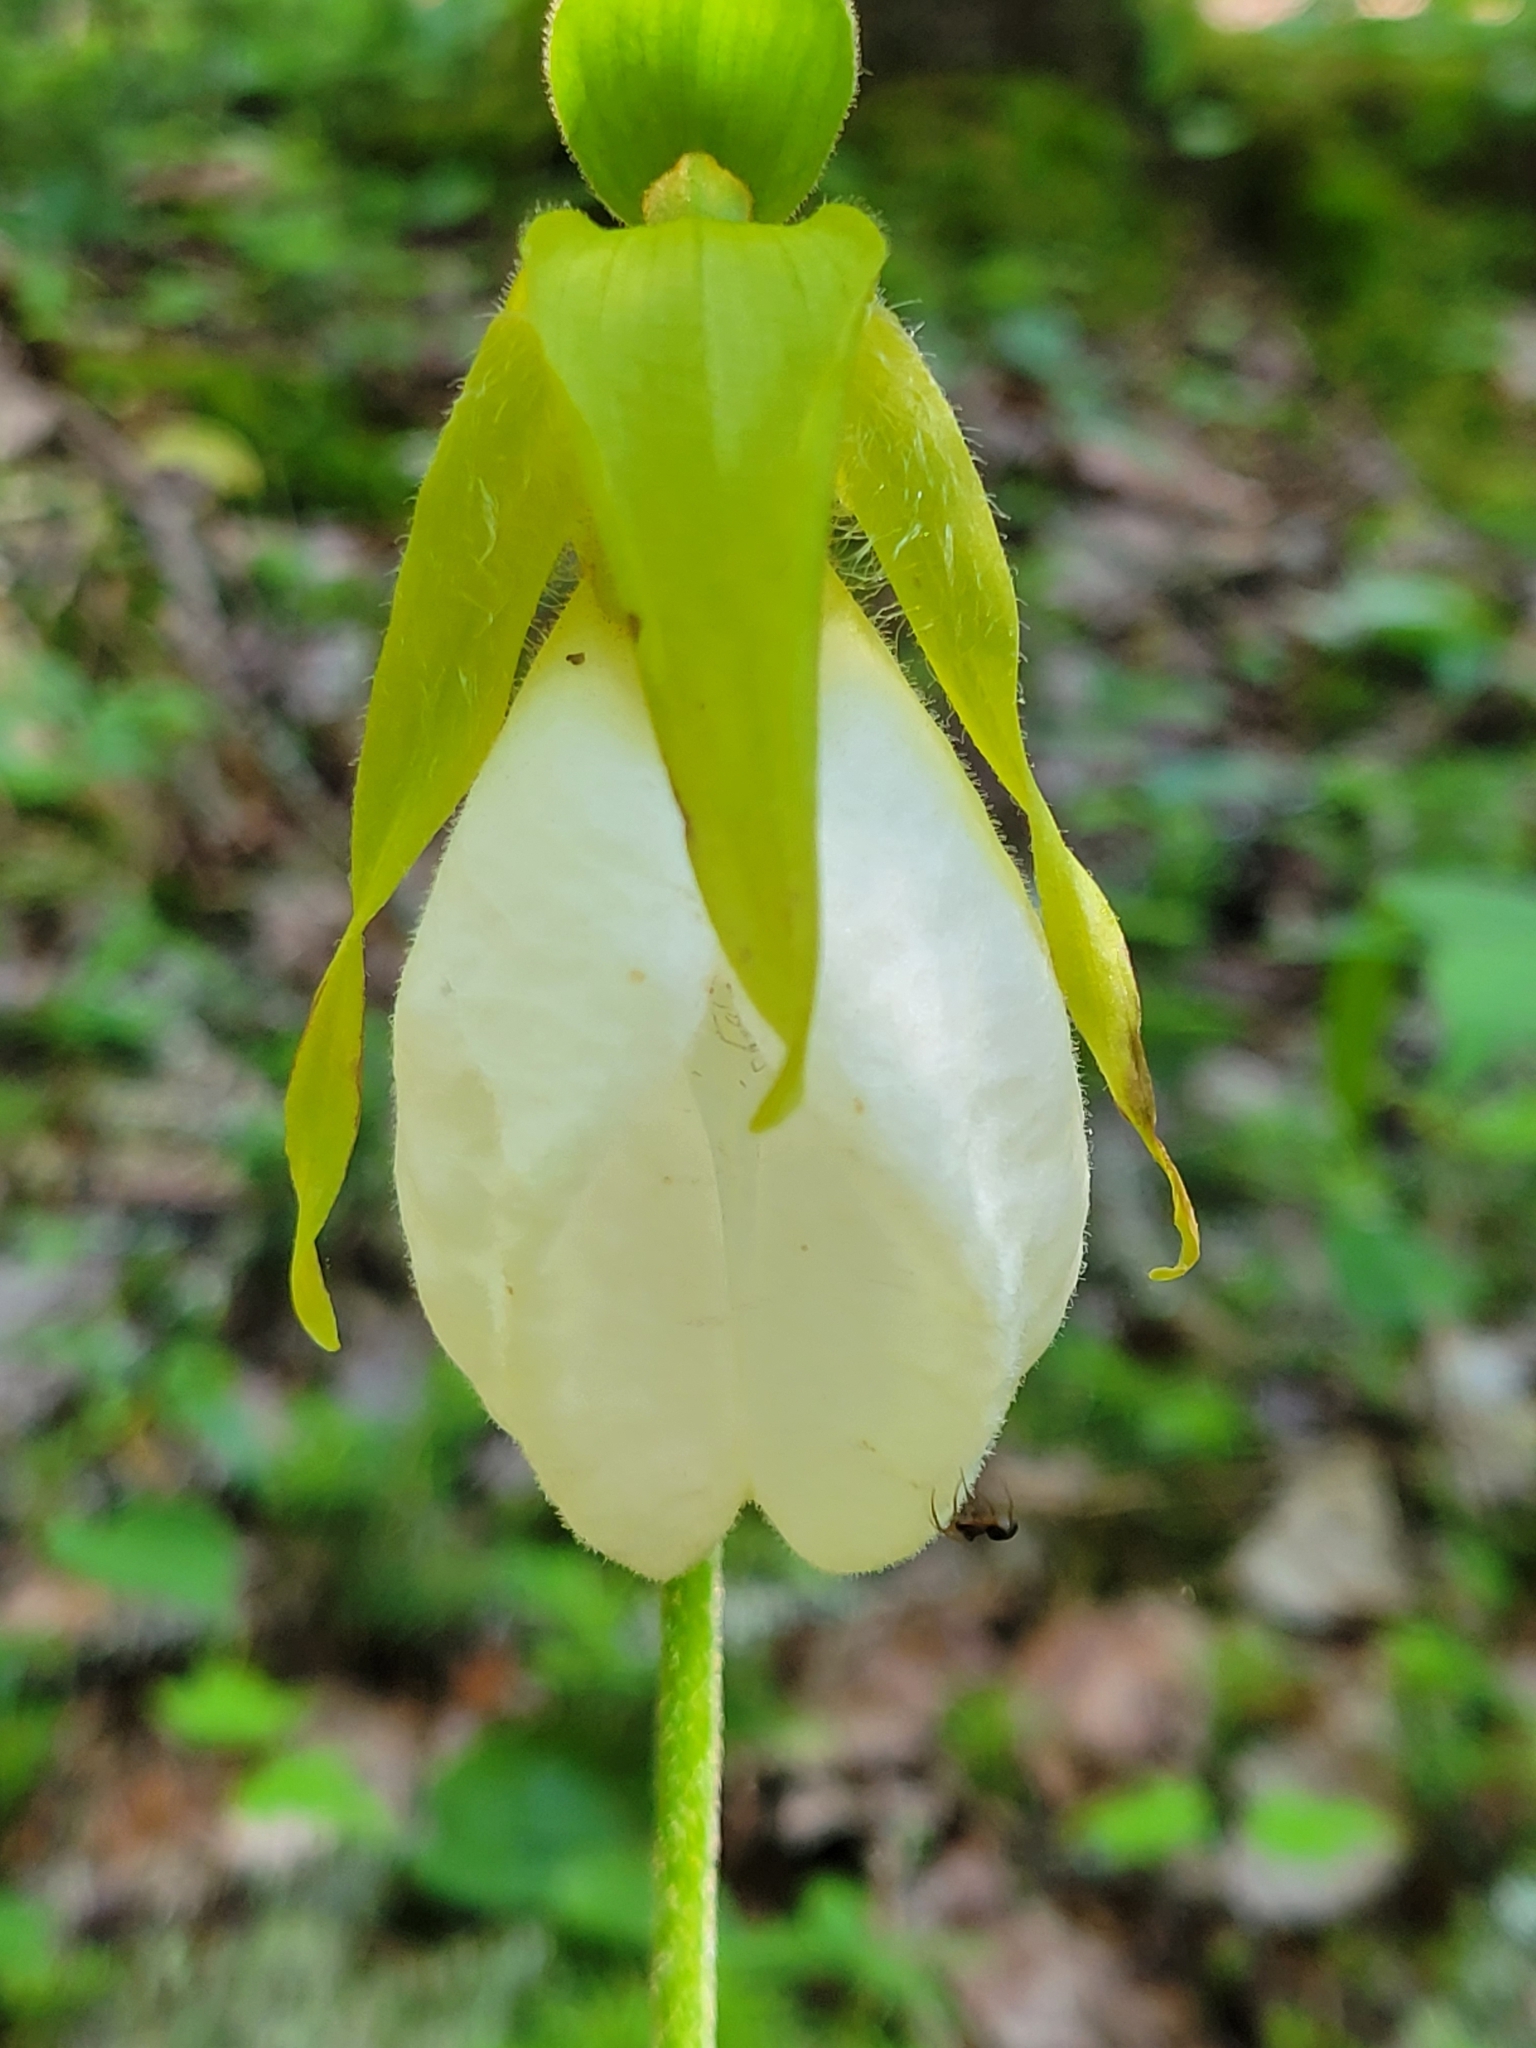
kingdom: Plantae
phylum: Tracheophyta
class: Liliopsida
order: Asparagales
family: Orchidaceae
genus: Cypripedium
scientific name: Cypripedium acaule
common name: Pink lady's-slipper
